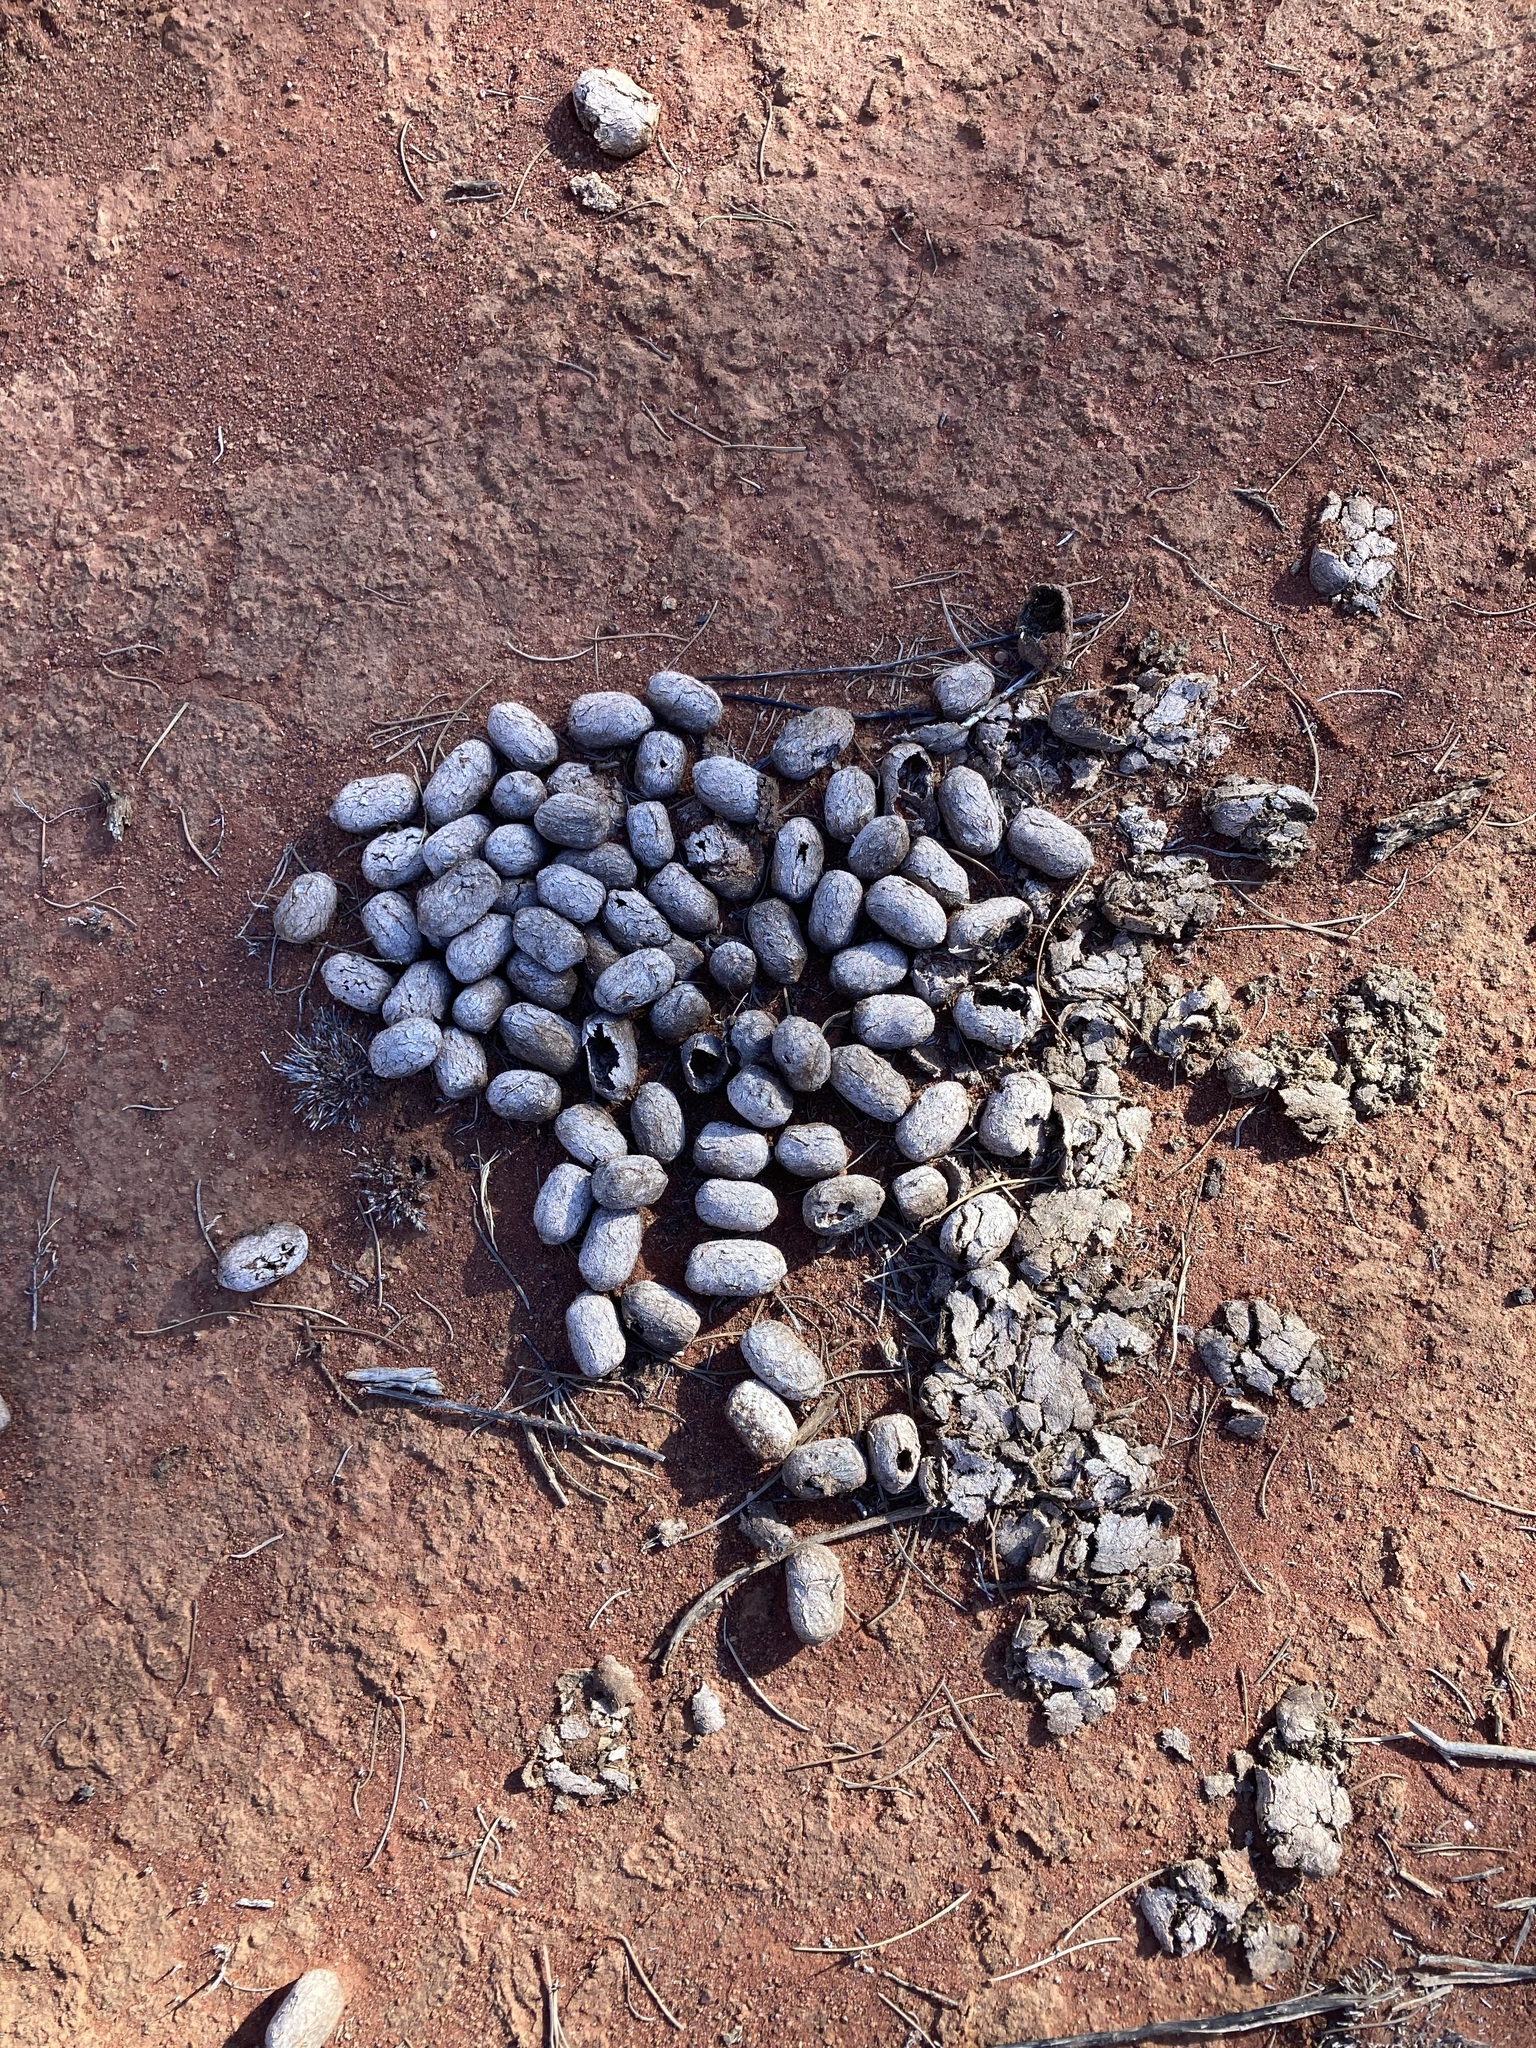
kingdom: Animalia
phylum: Chordata
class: Mammalia
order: Artiodactyla
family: Camelidae
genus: Camelus
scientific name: Camelus dromedarius
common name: One-humped camel
